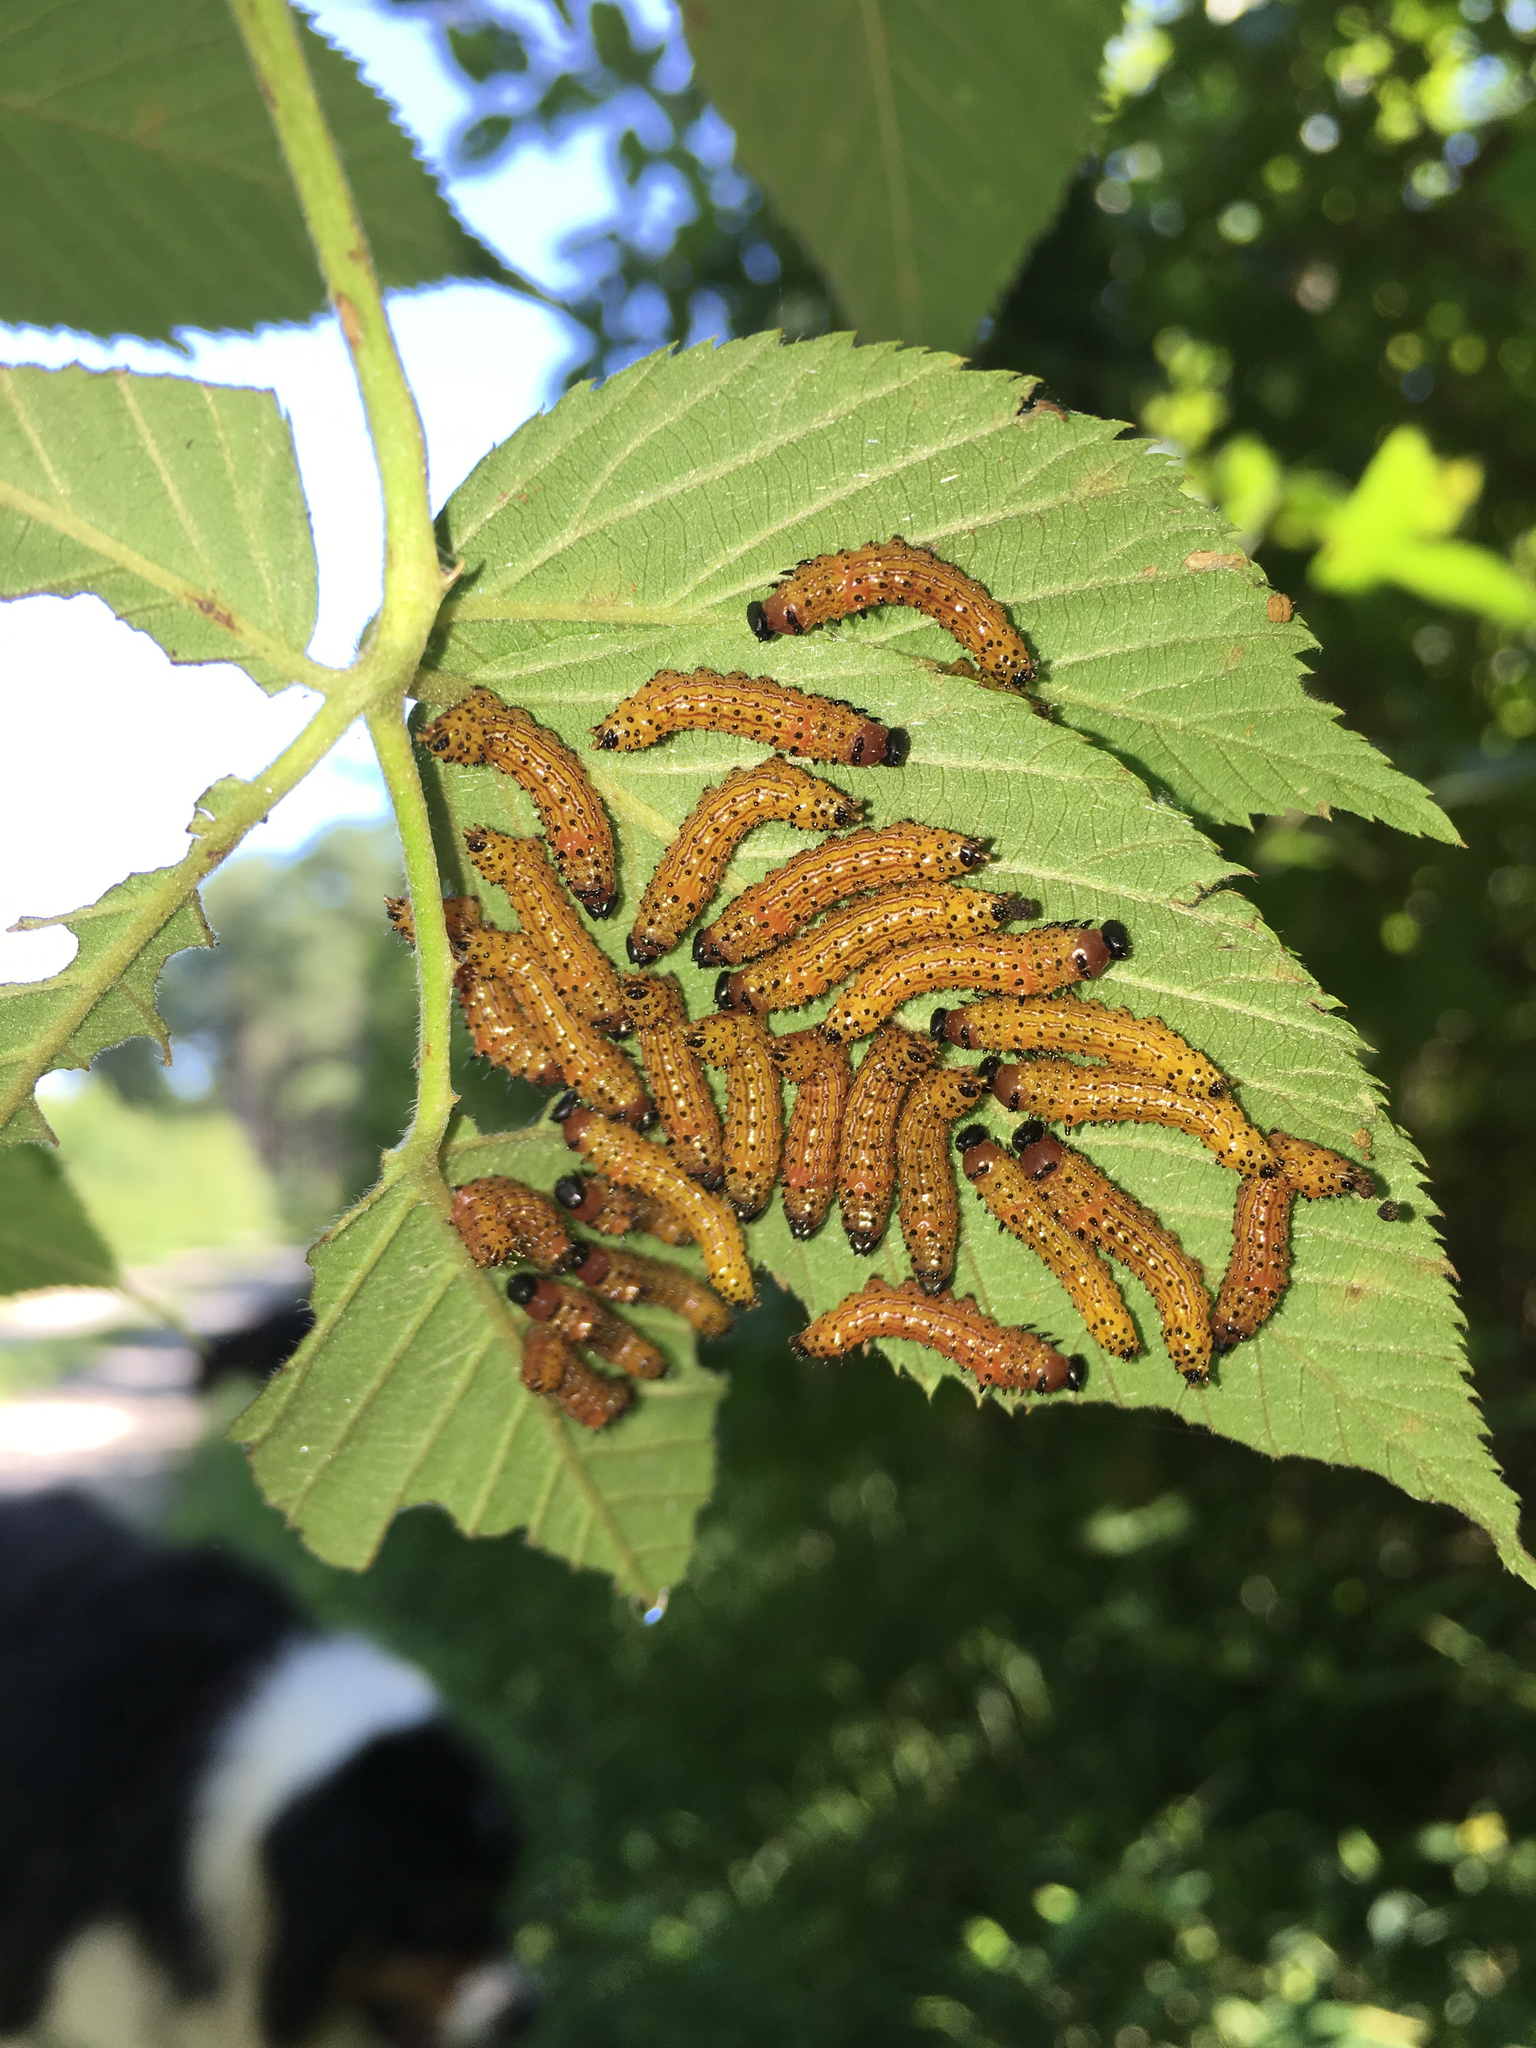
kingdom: Animalia
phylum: Arthropoda
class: Insecta
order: Lepidoptera
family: Notodontidae
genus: Schizura
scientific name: Schizura
